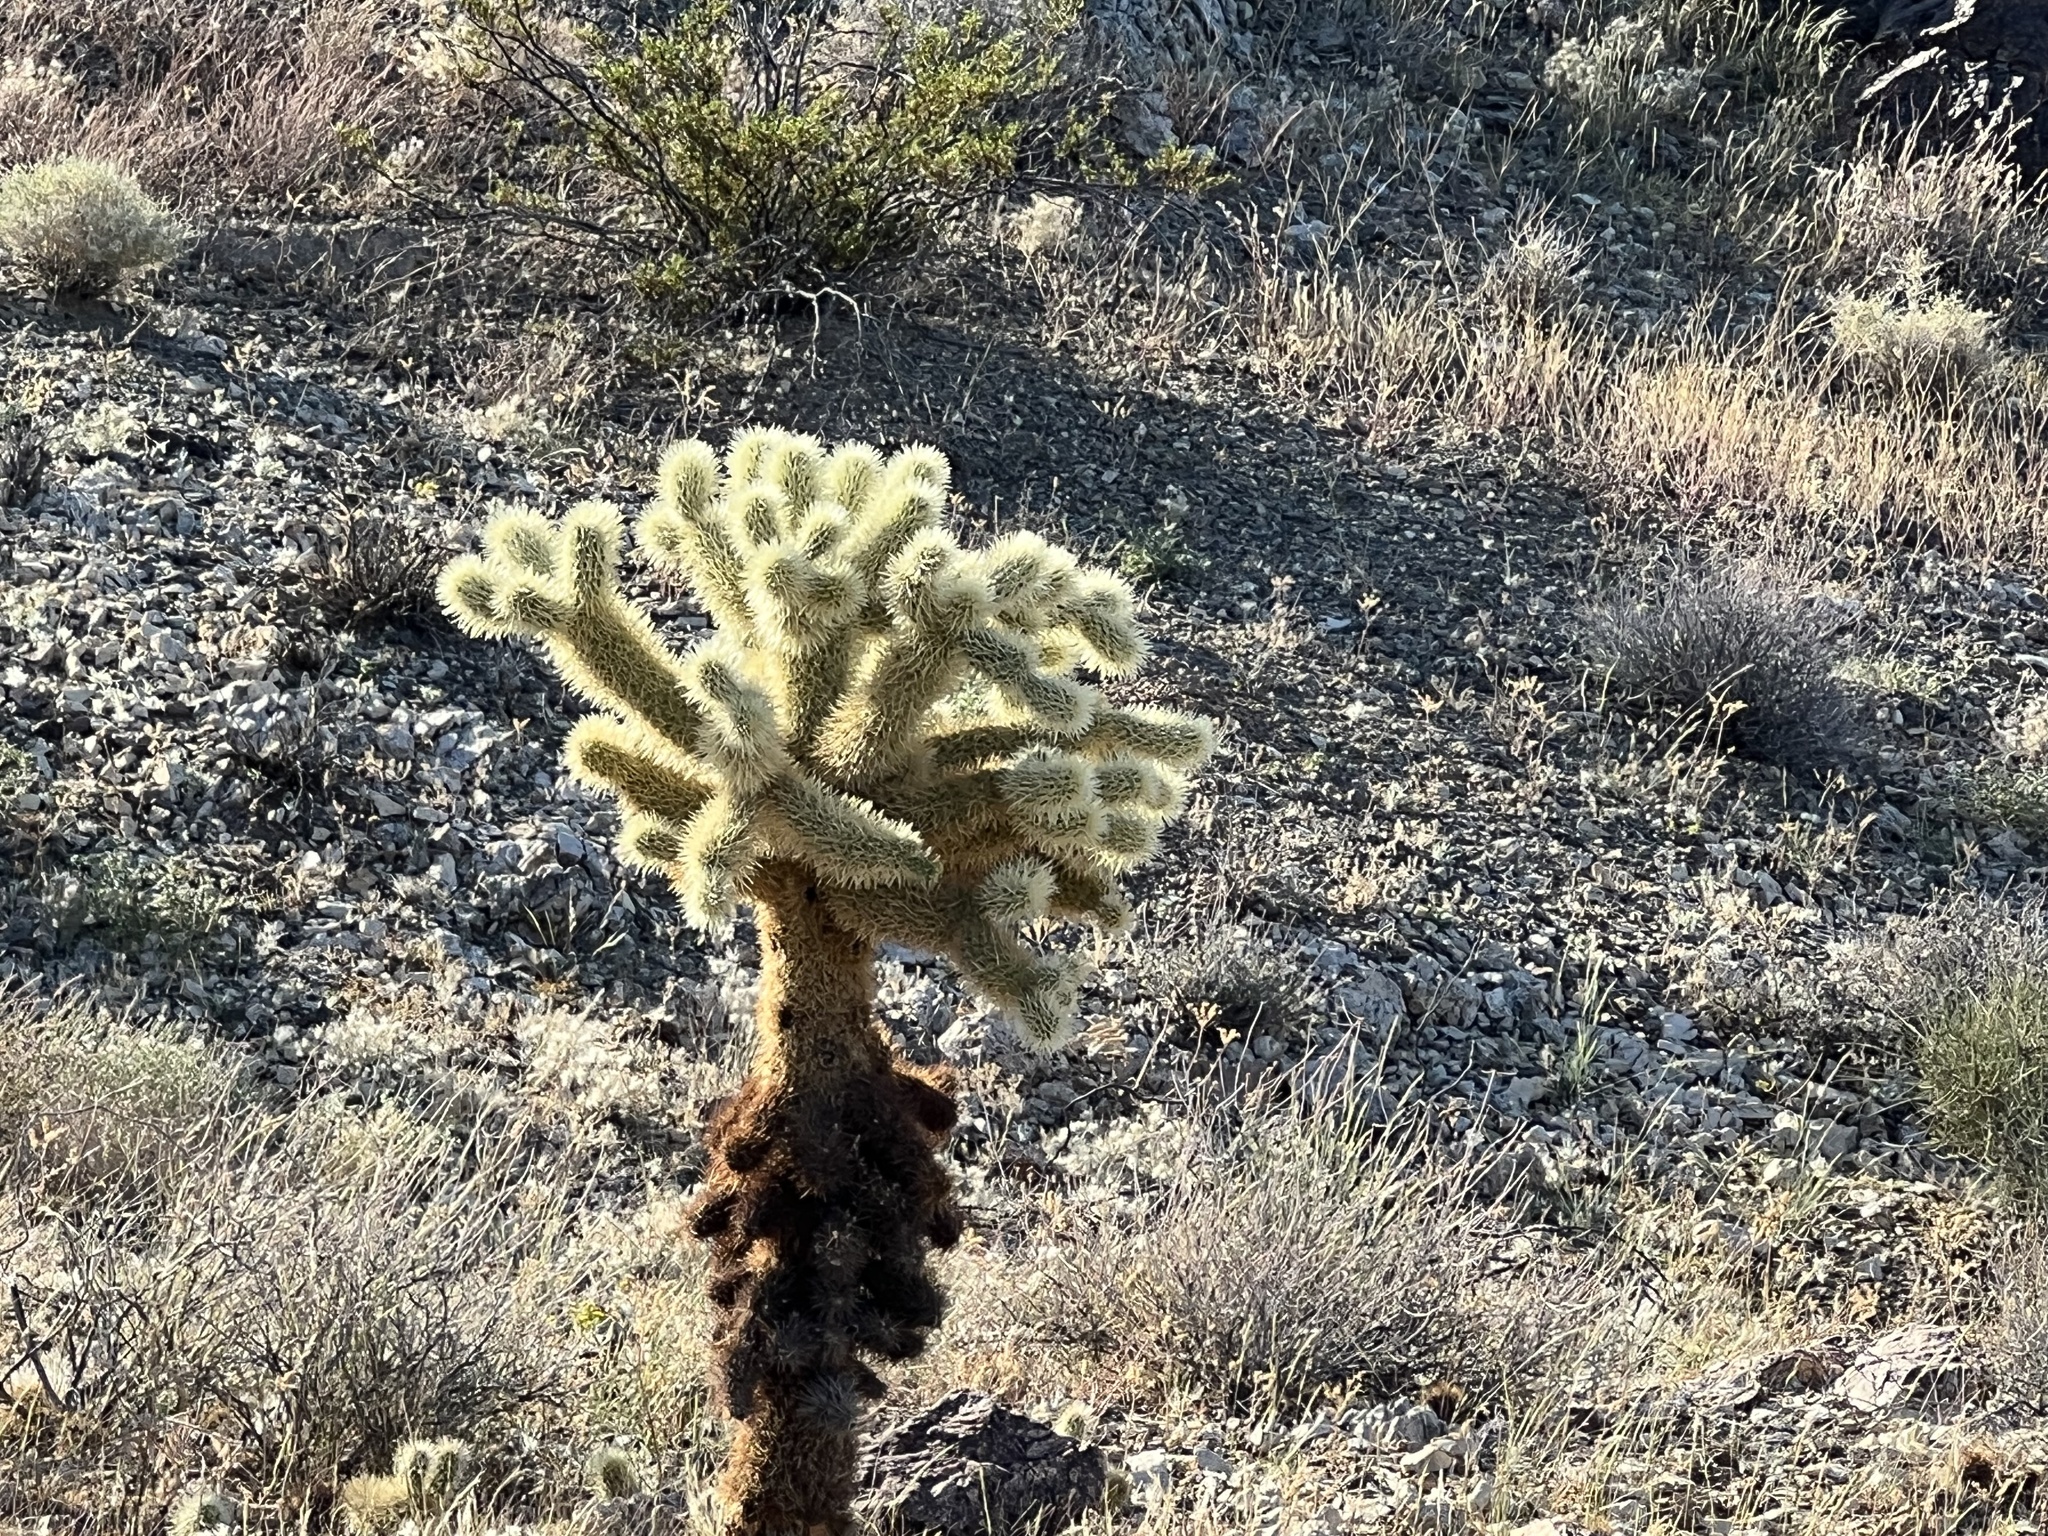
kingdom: Plantae
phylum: Tracheophyta
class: Magnoliopsida
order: Caryophyllales
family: Cactaceae
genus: Cylindropuntia
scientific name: Cylindropuntia fosbergii
